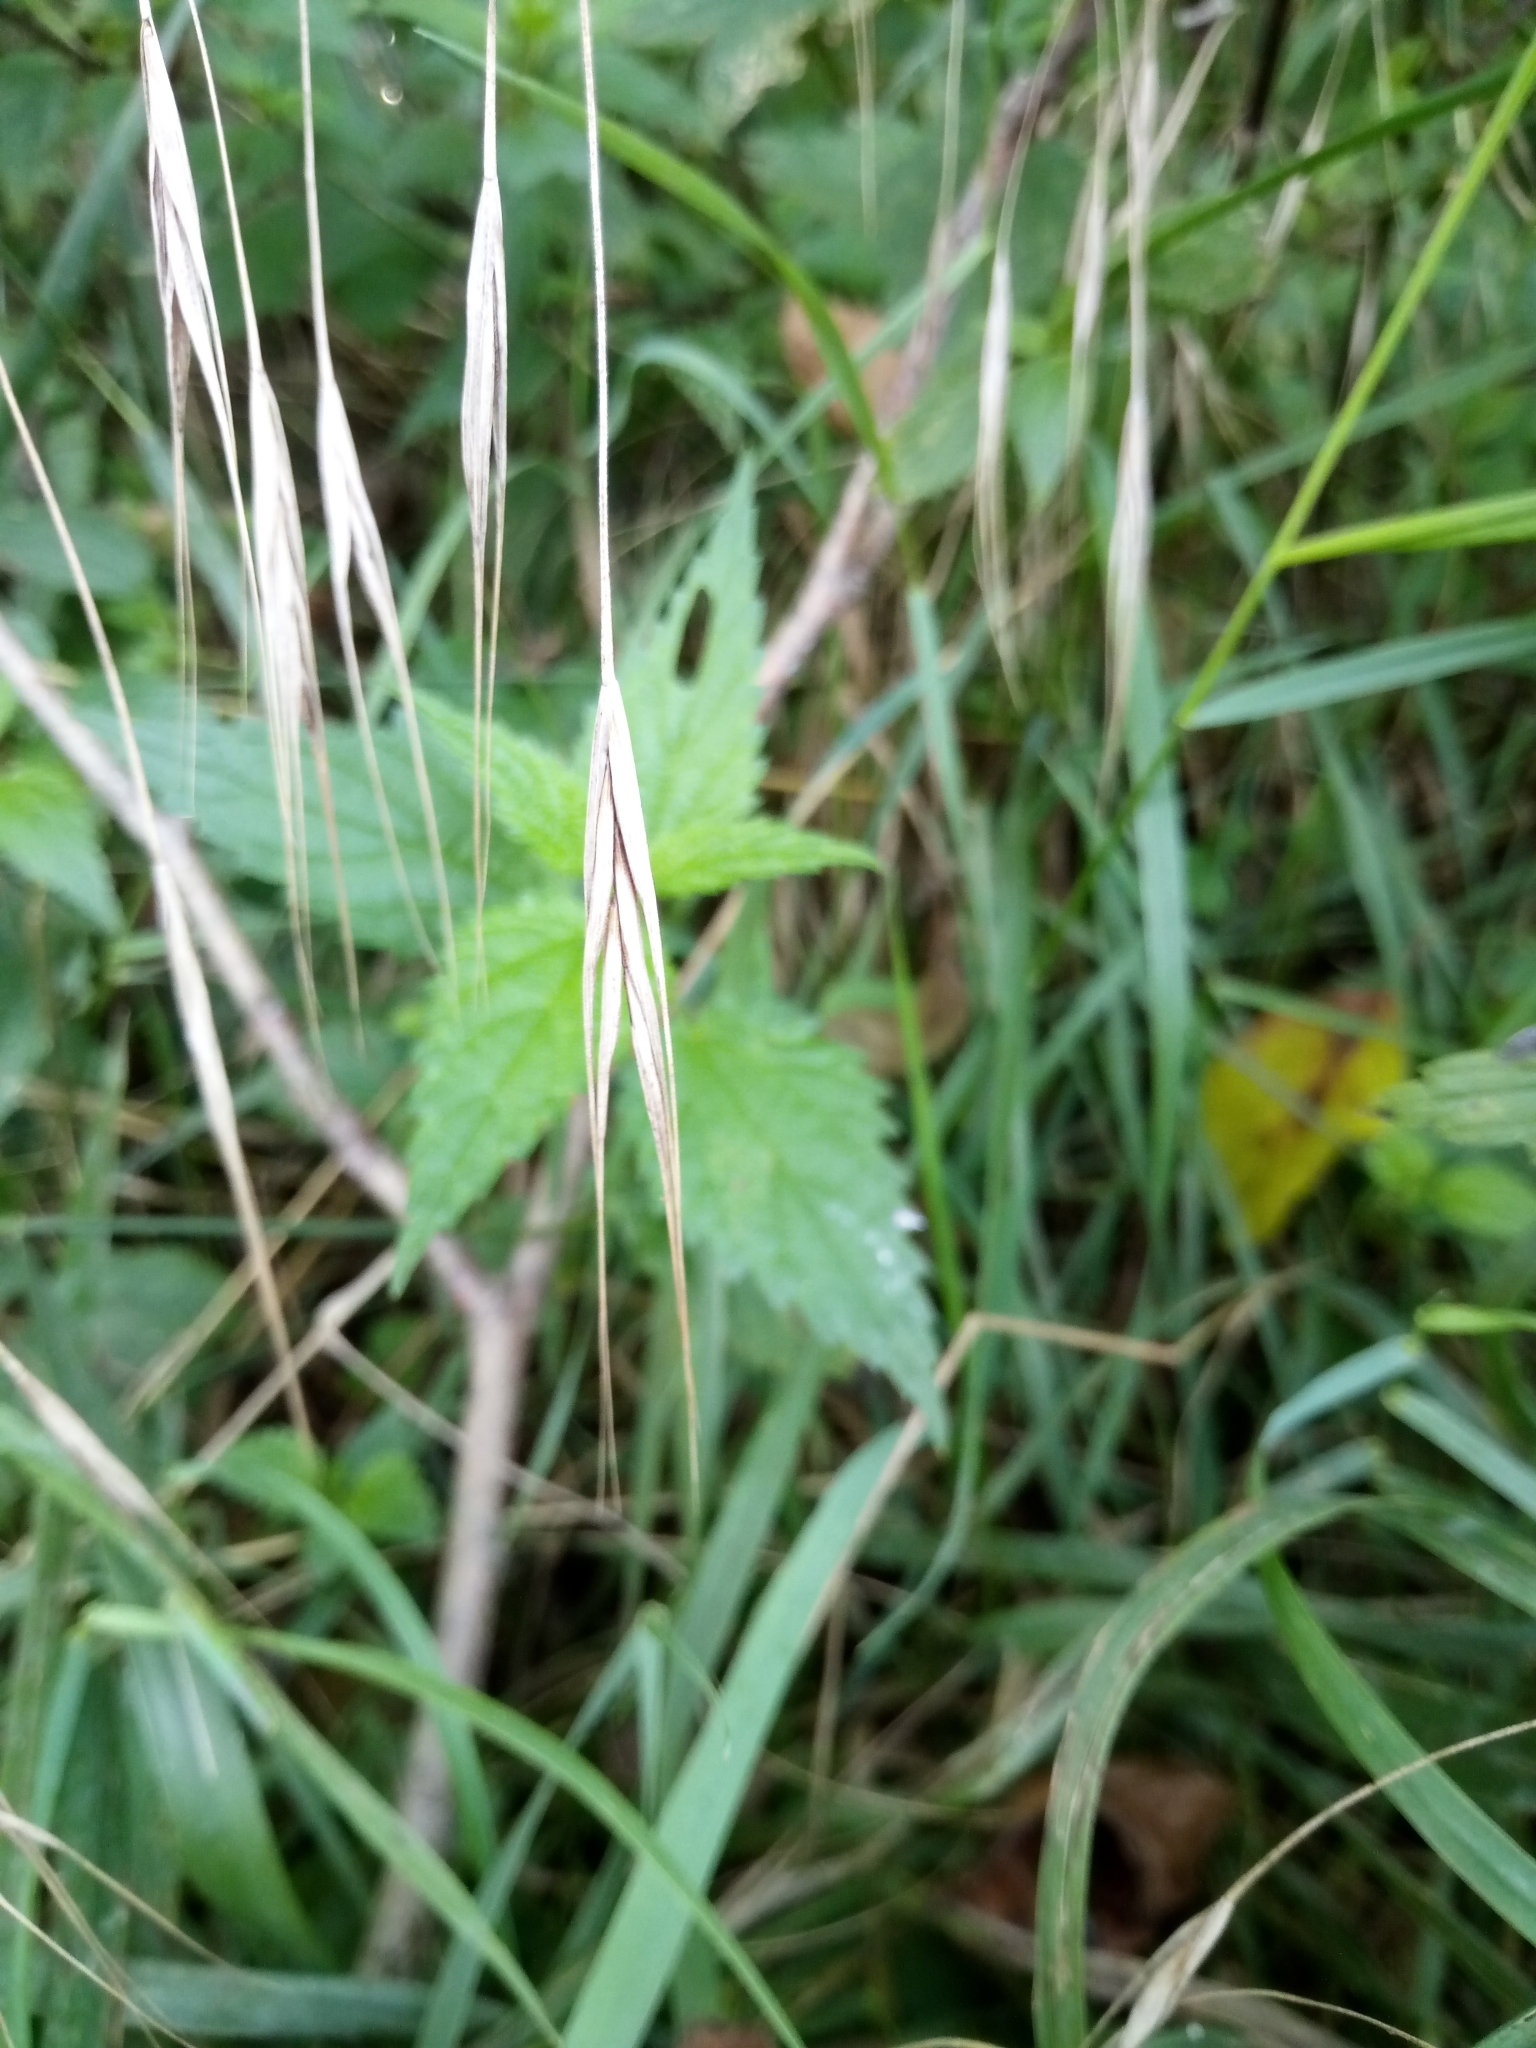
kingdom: Plantae
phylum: Tracheophyta
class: Liliopsida
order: Poales
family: Poaceae
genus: Bromus
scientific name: Bromus sterilis
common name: Poverty brome
